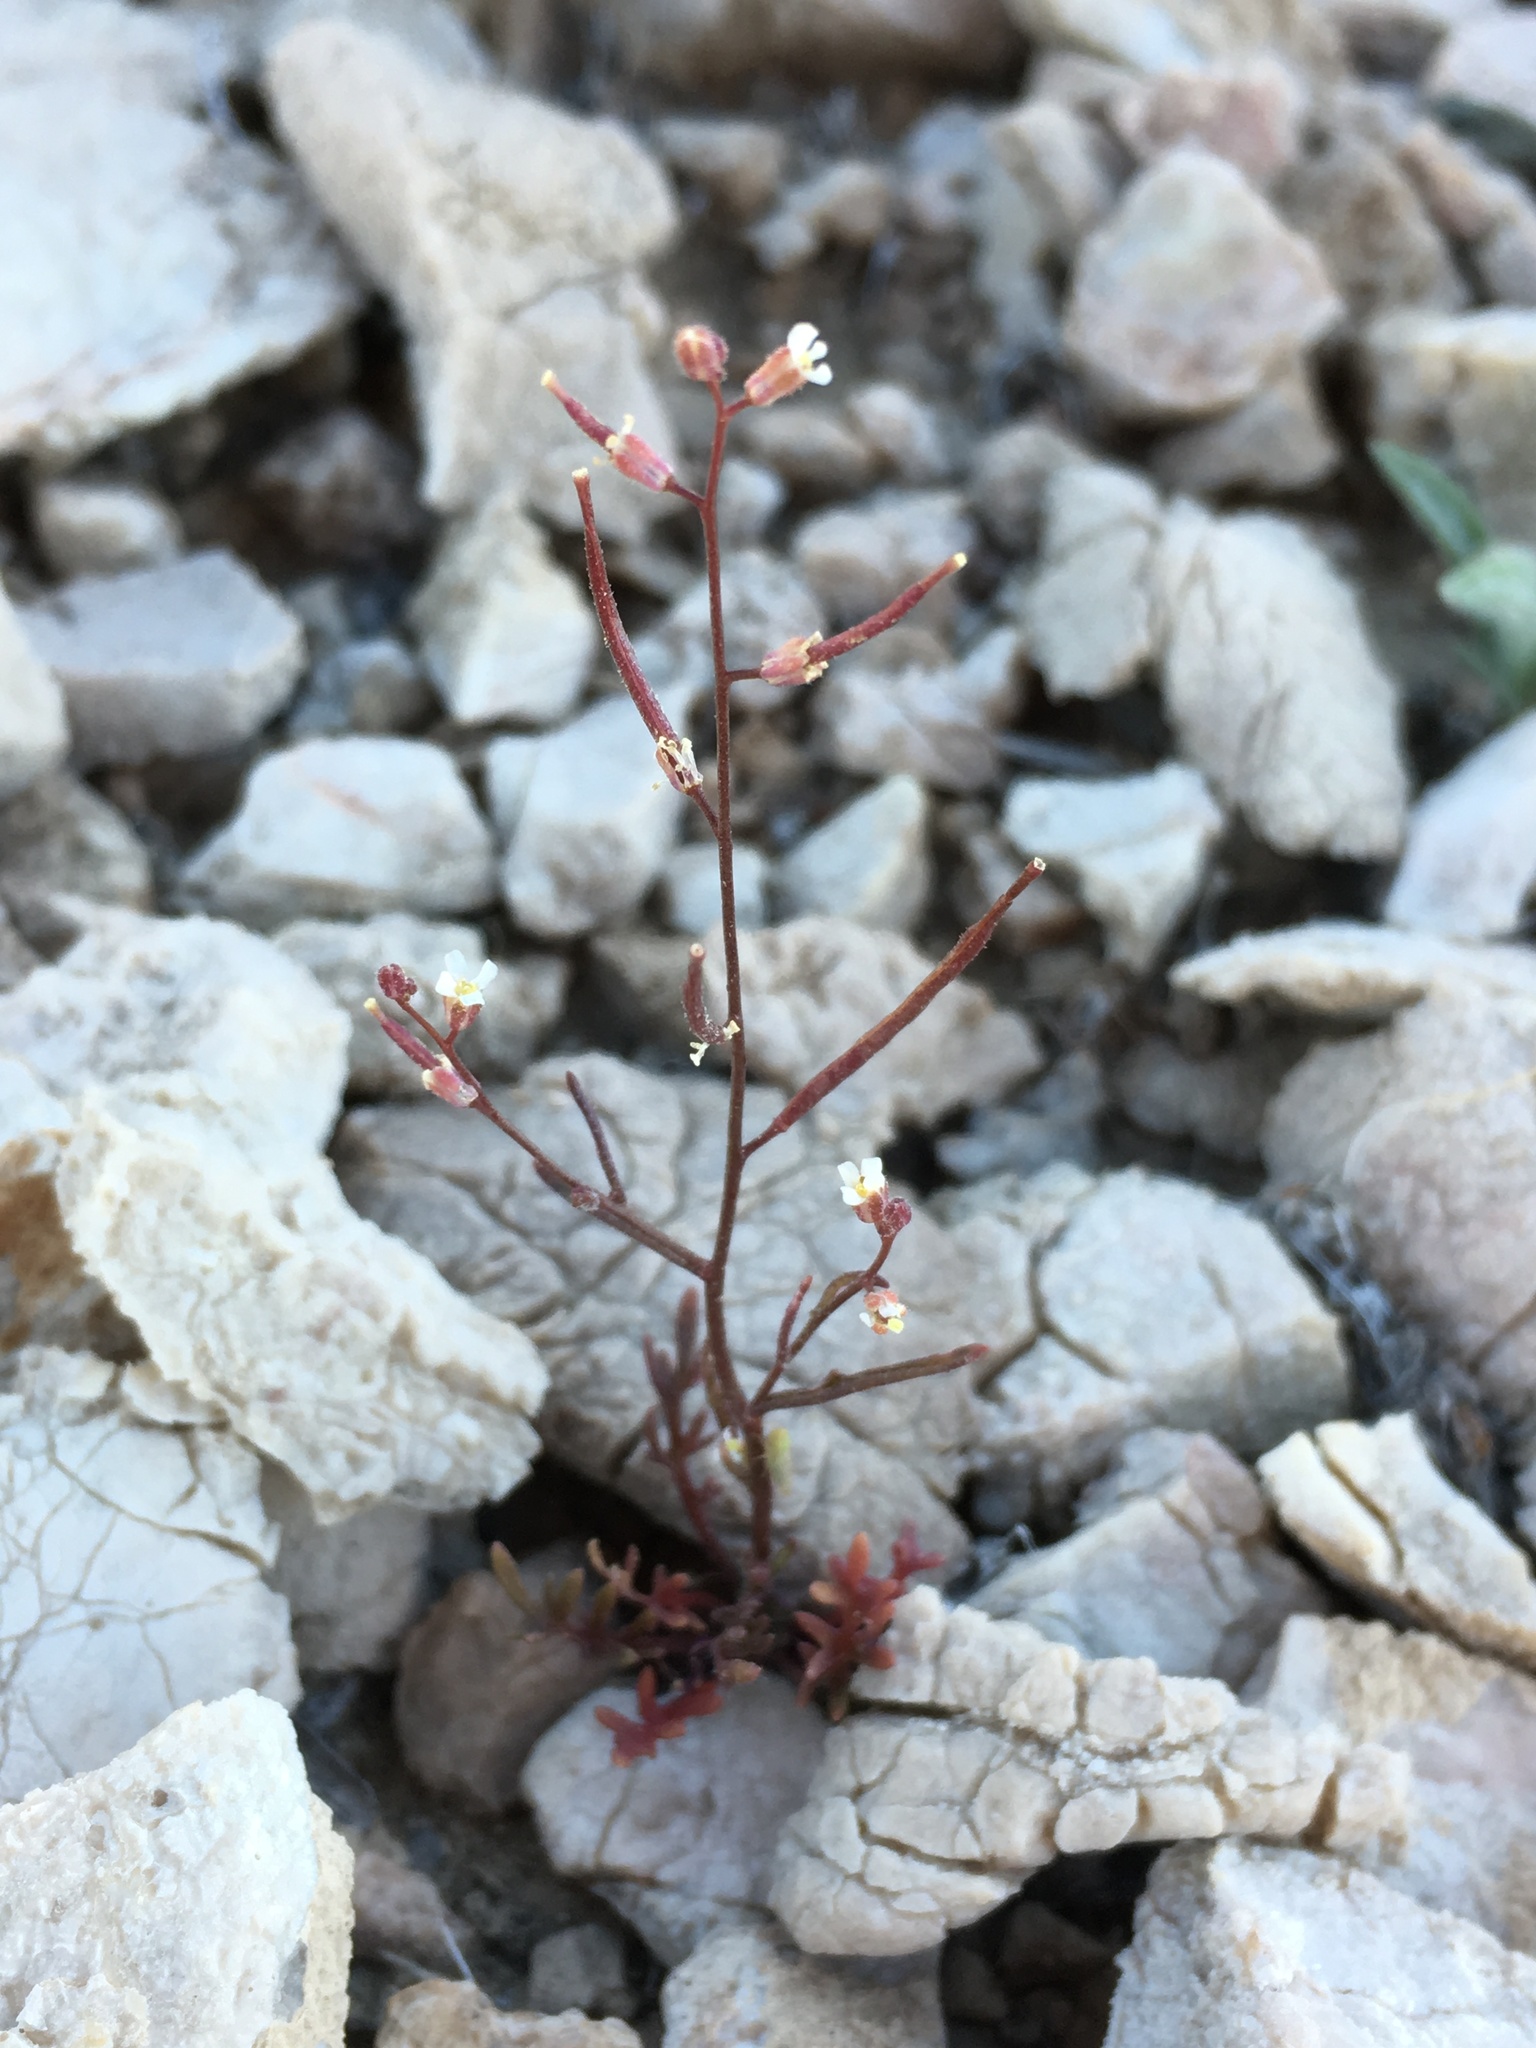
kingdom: Plantae
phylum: Tracheophyta
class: Magnoliopsida
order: Brassicales
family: Brassicaceae
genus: Sibara
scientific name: Sibara deserti
